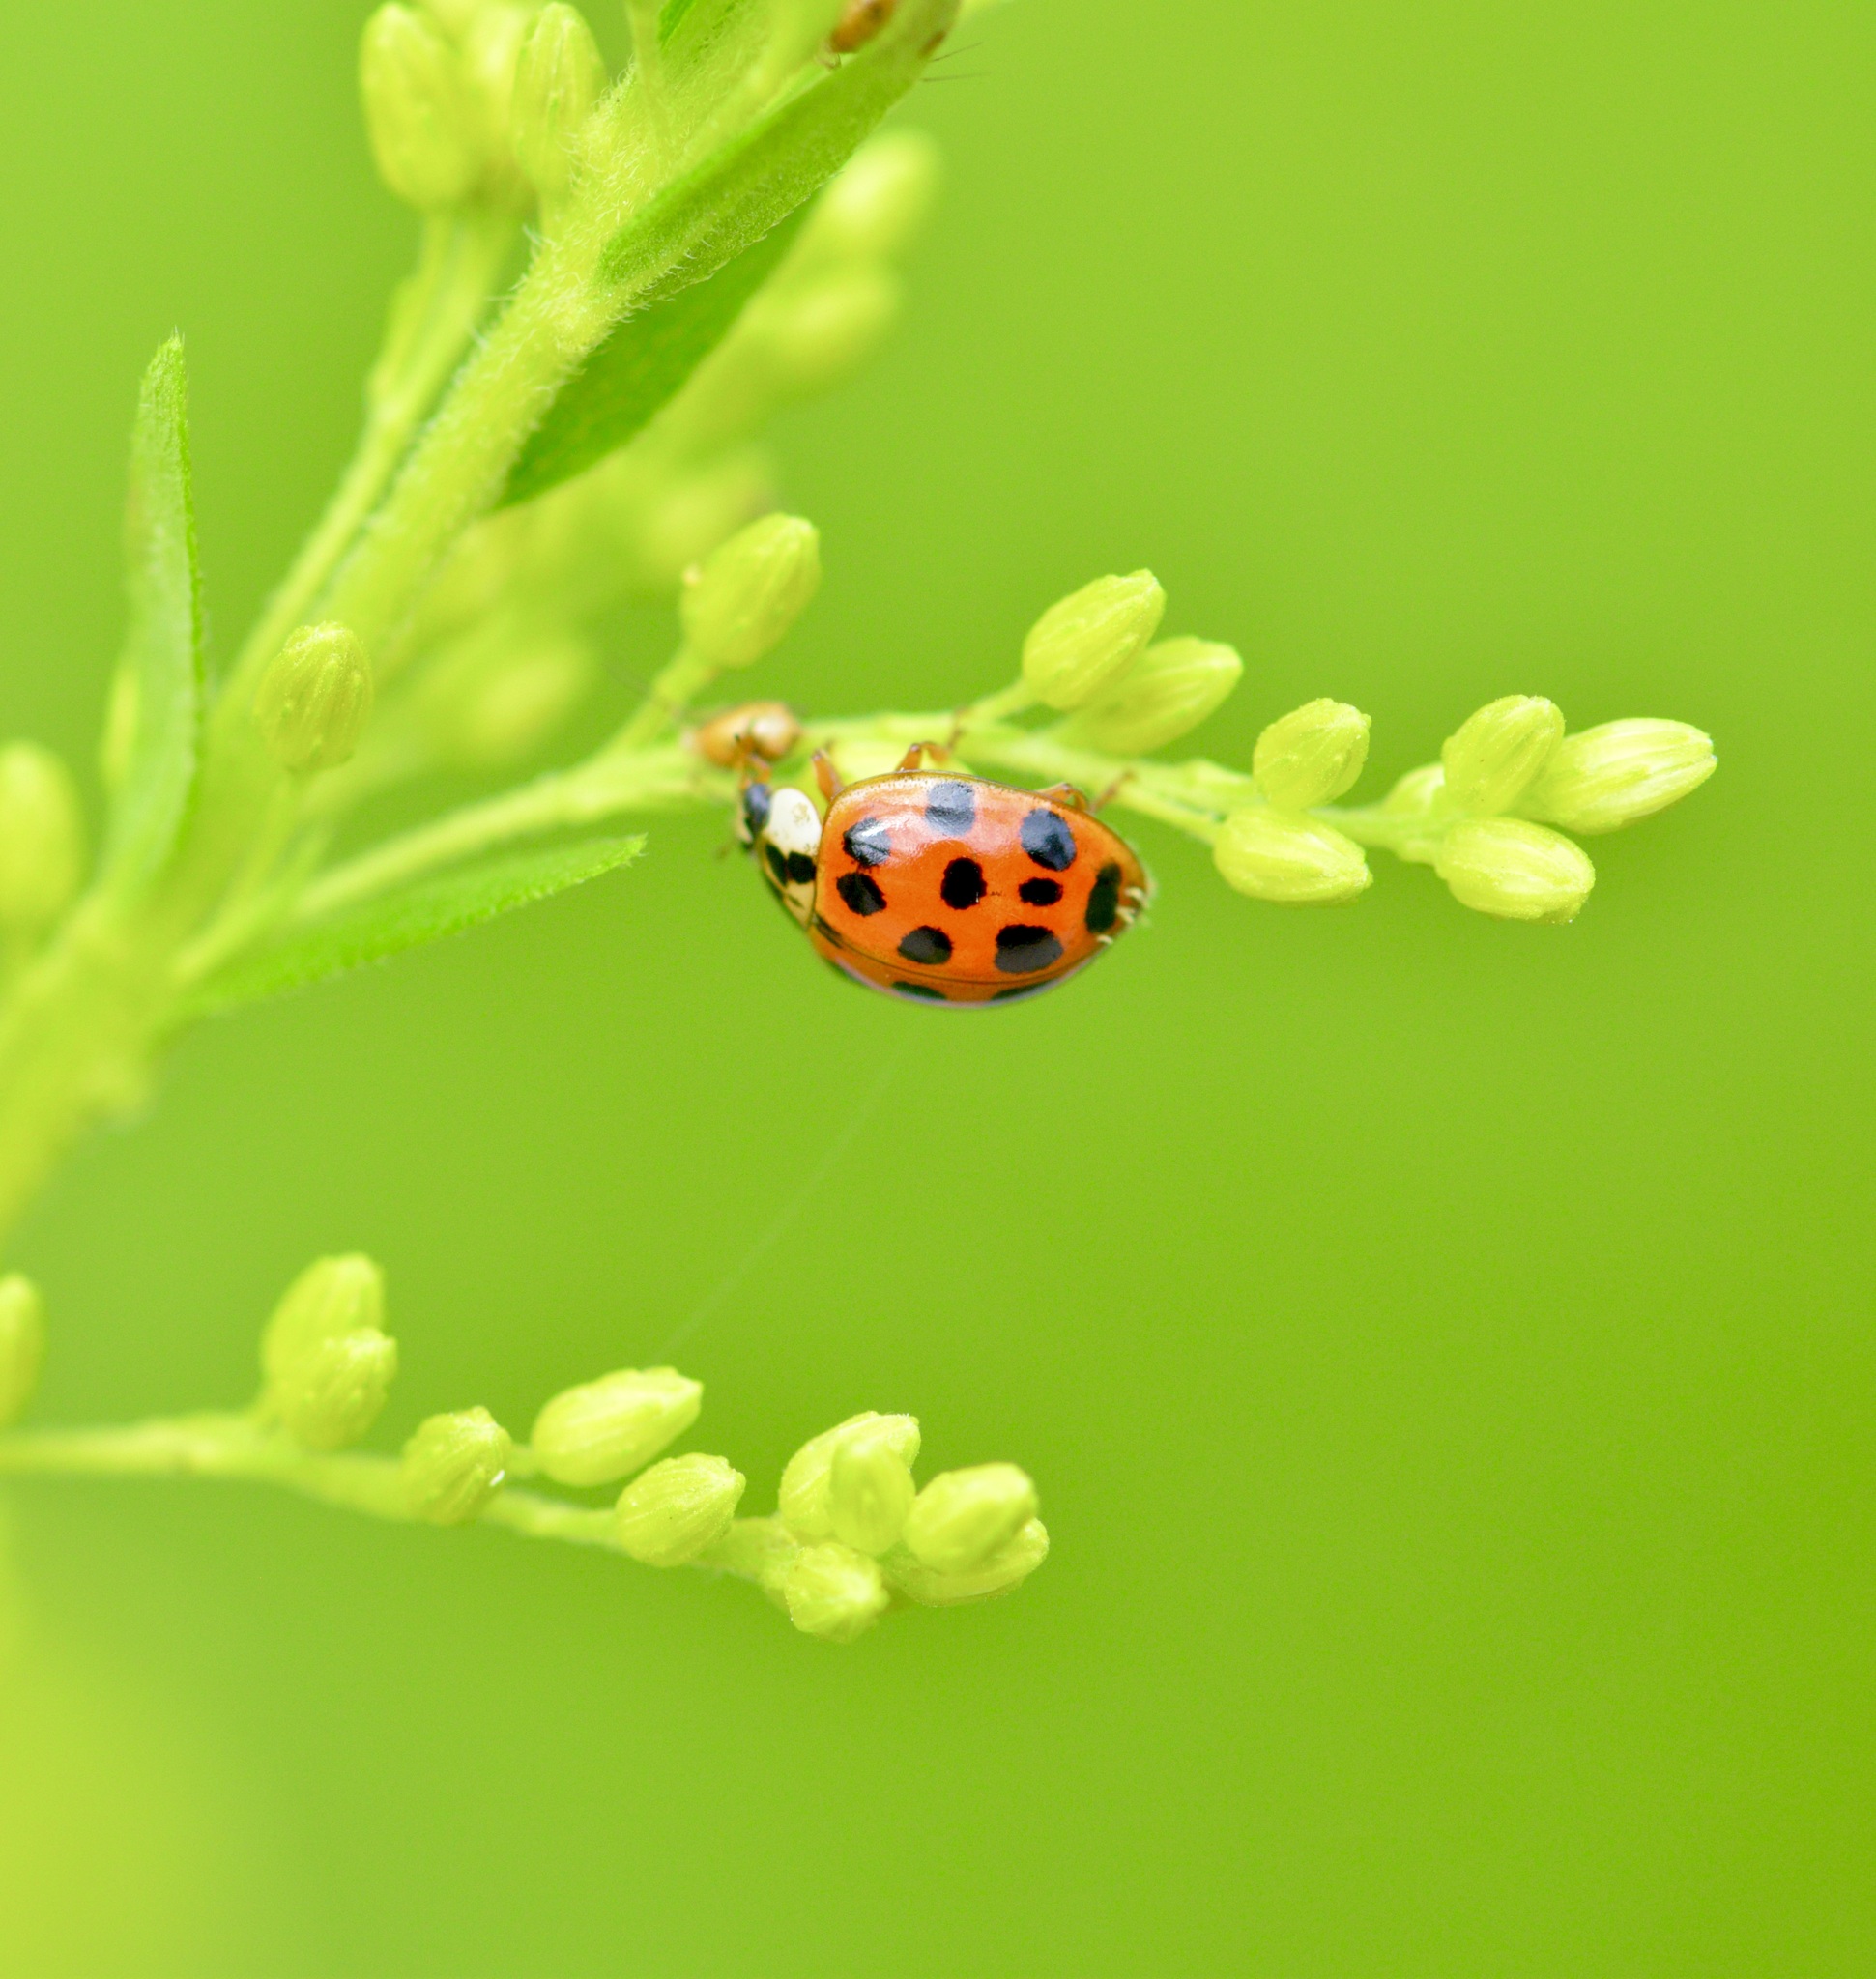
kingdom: Animalia
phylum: Arthropoda
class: Insecta
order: Coleoptera
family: Coccinellidae
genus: Harmonia
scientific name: Harmonia axyridis
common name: Harlequin ladybird
